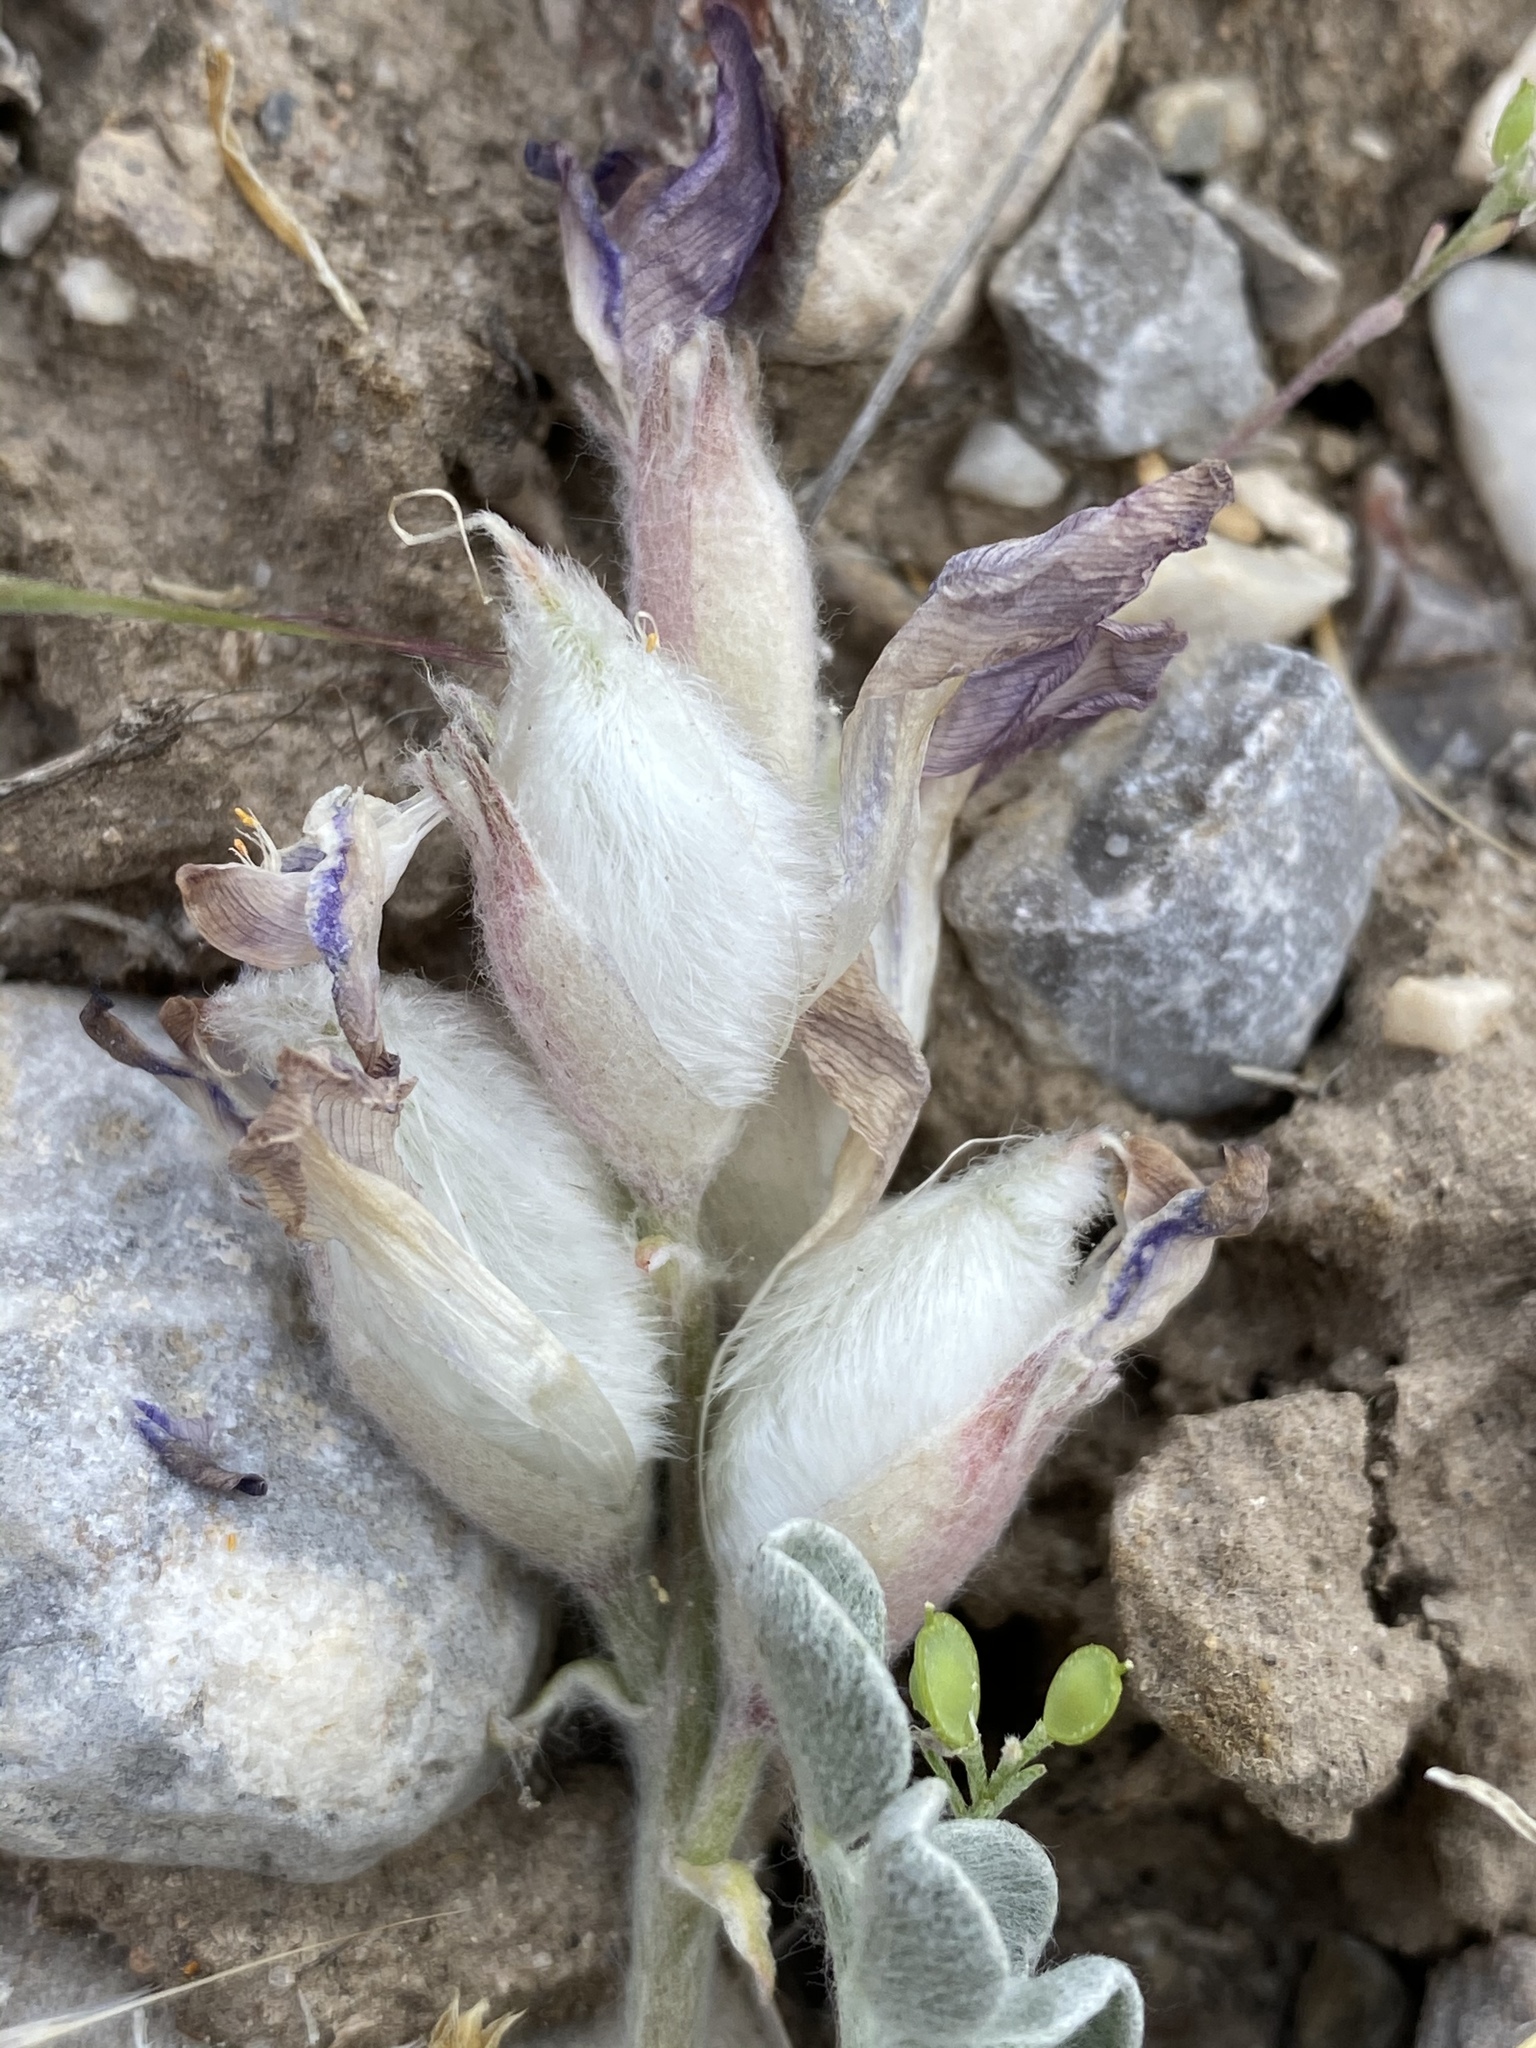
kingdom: Plantae
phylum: Tracheophyta
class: Magnoliopsida
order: Fabales
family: Fabaceae
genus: Astragalus
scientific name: Astragalus utahensis
